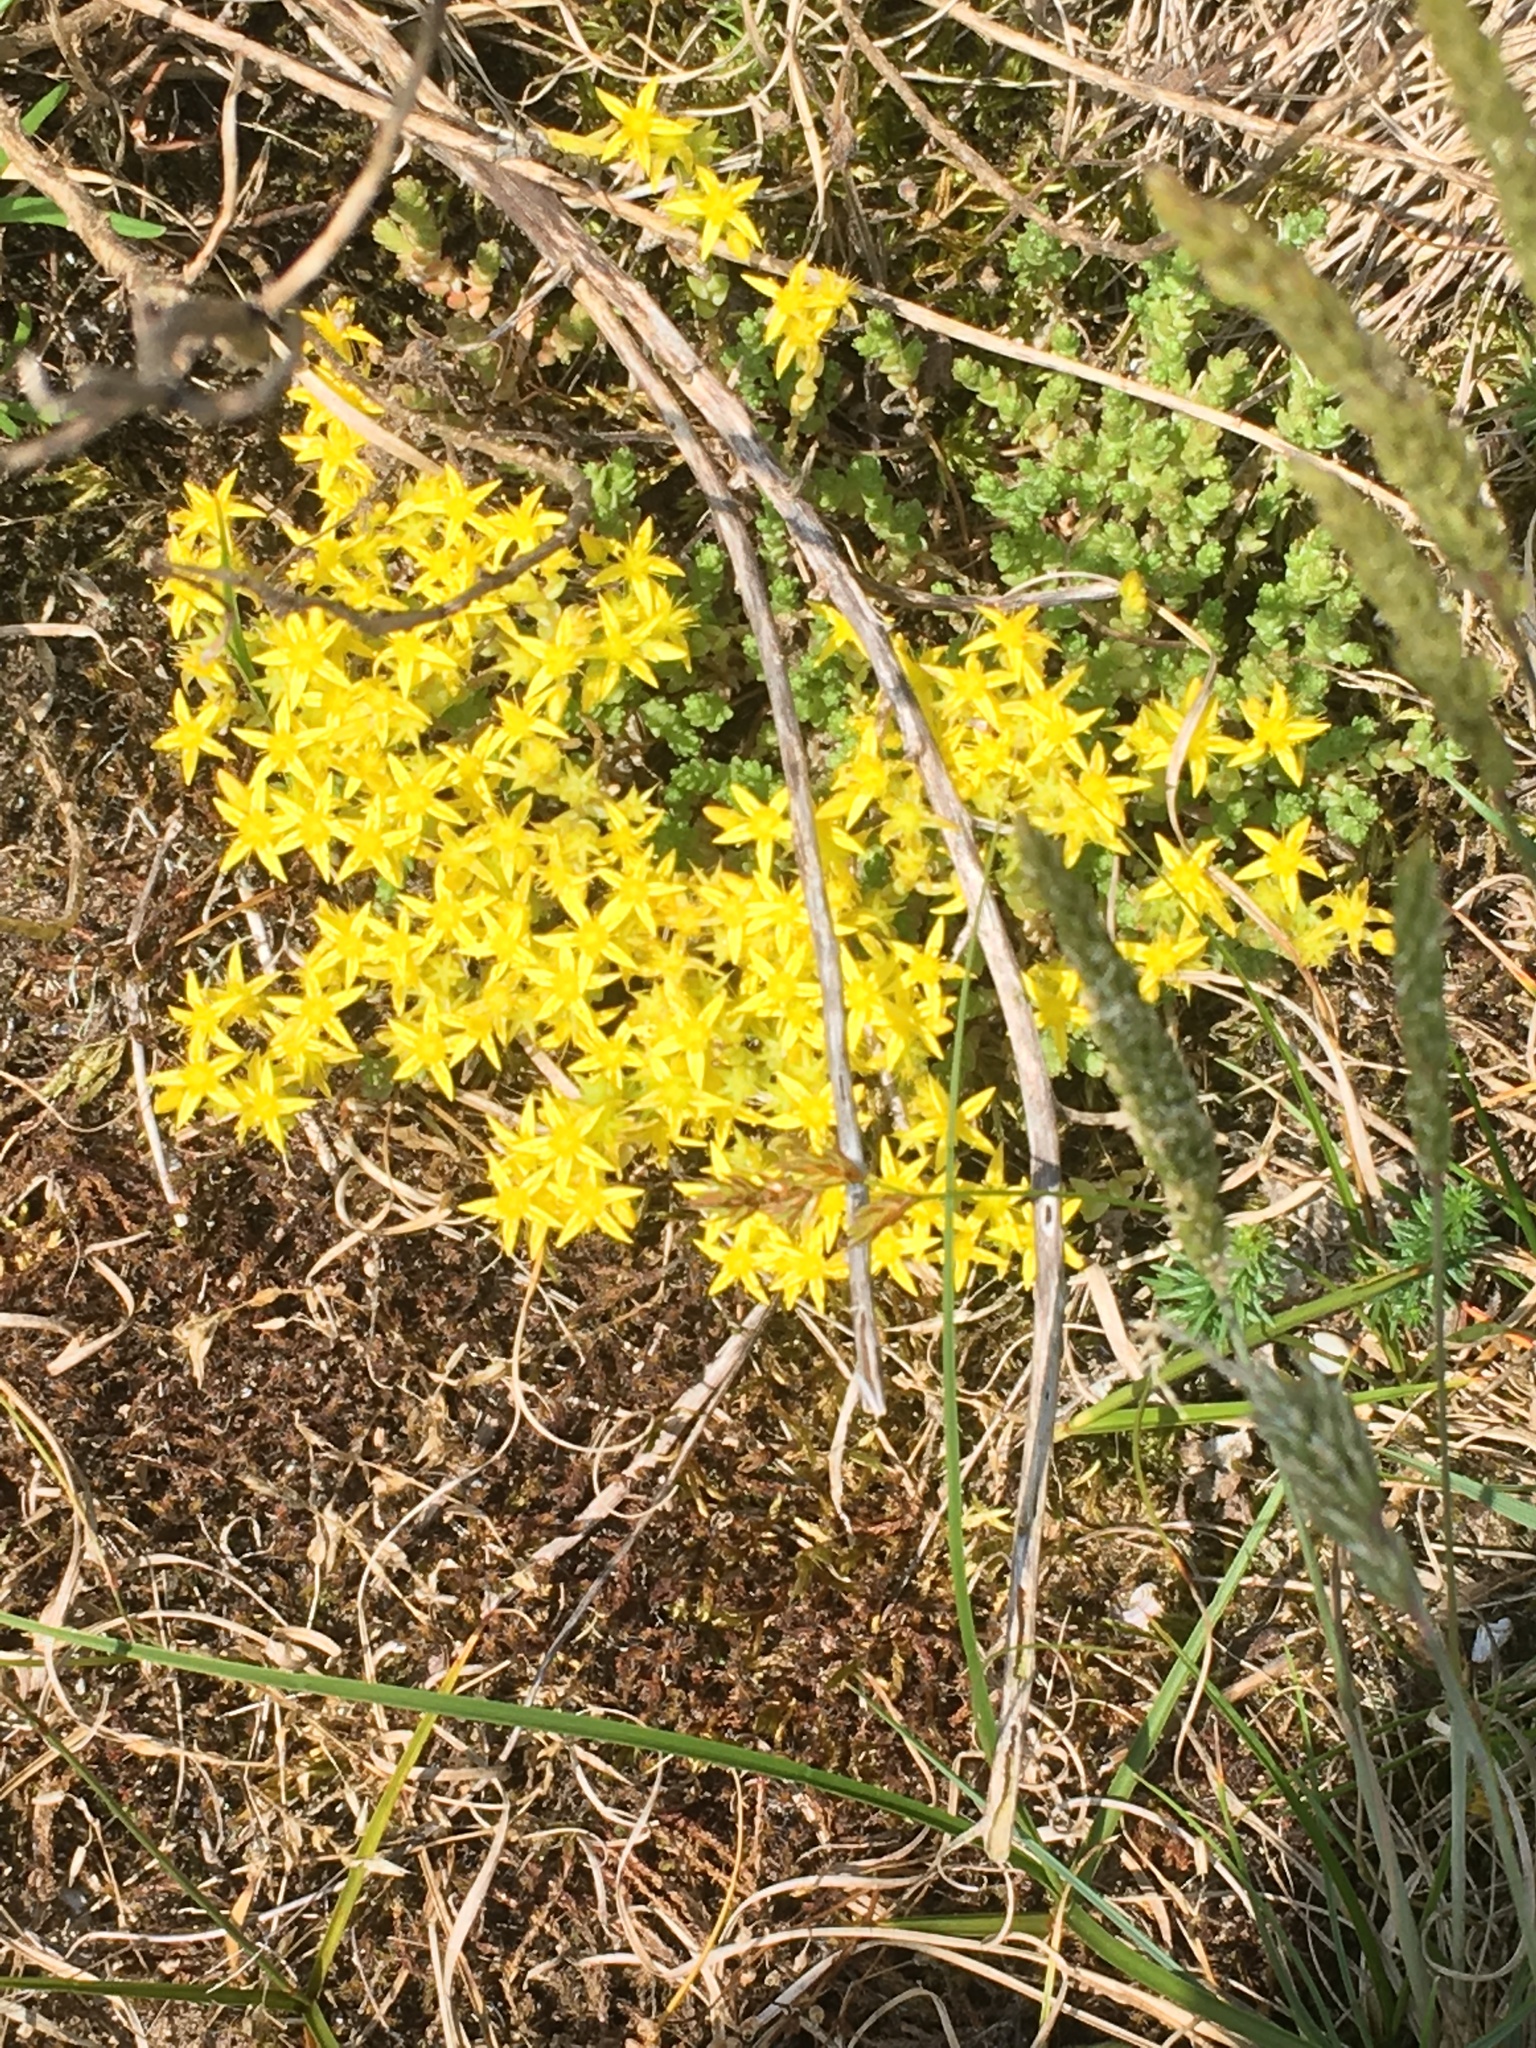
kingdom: Plantae
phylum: Tracheophyta
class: Magnoliopsida
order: Saxifragales
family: Crassulaceae
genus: Sedum
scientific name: Sedum acre
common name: Biting stonecrop
